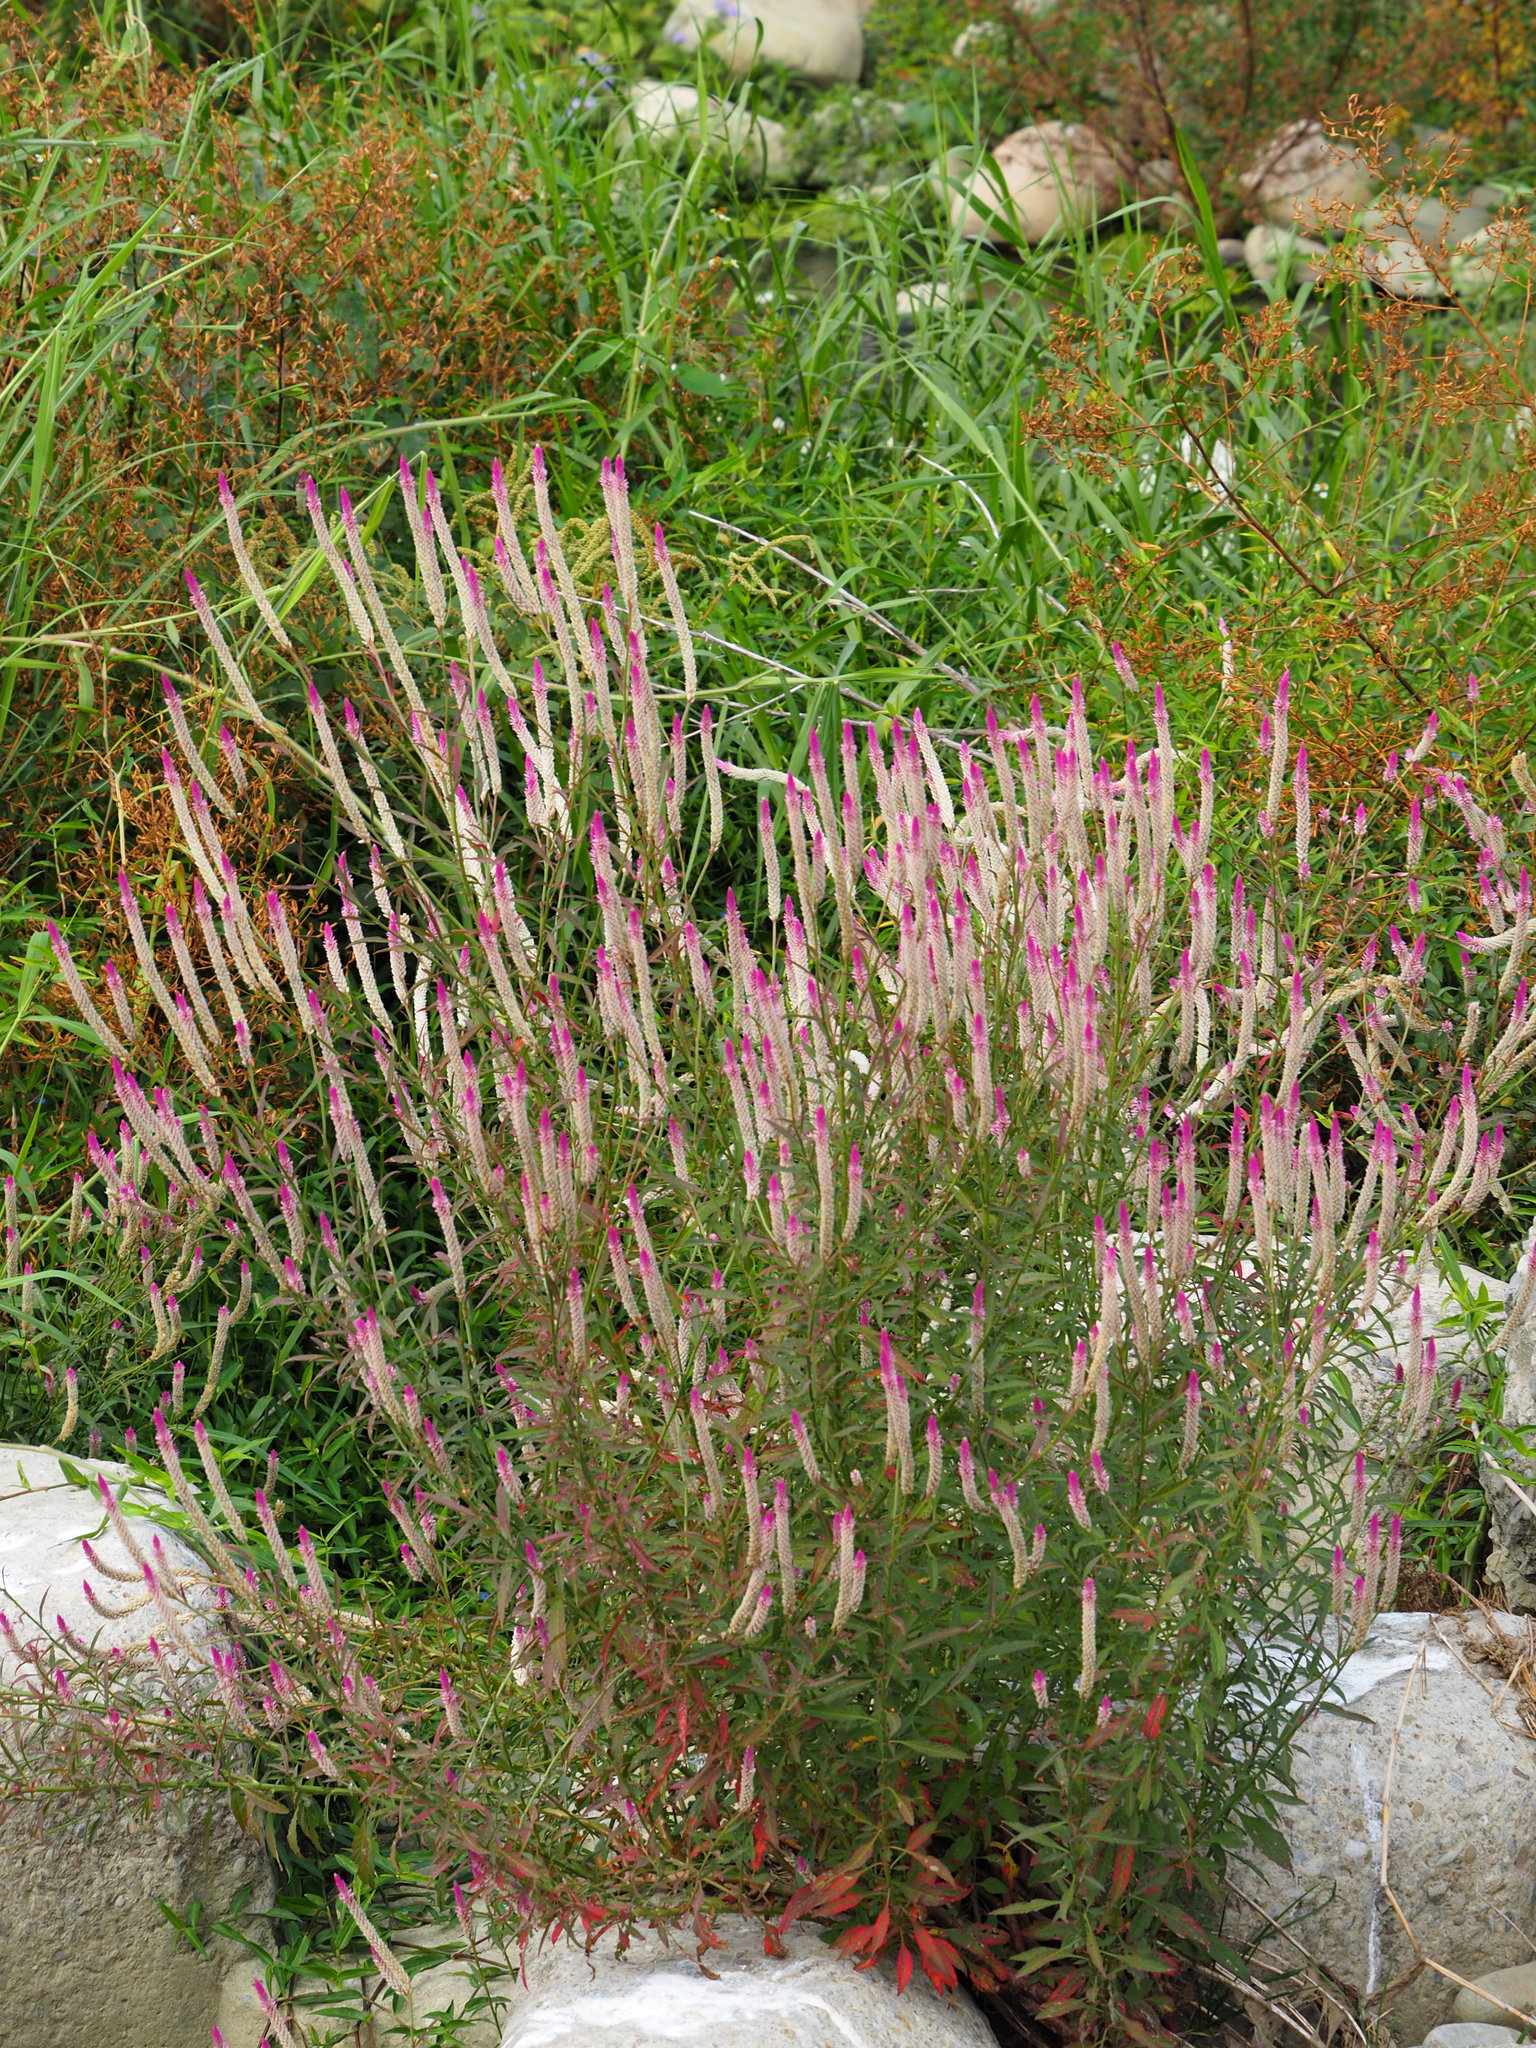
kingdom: Plantae
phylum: Tracheophyta
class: Magnoliopsida
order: Caryophyllales
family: Amaranthaceae
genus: Celosia
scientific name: Celosia argentea
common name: Feather cockscomb
